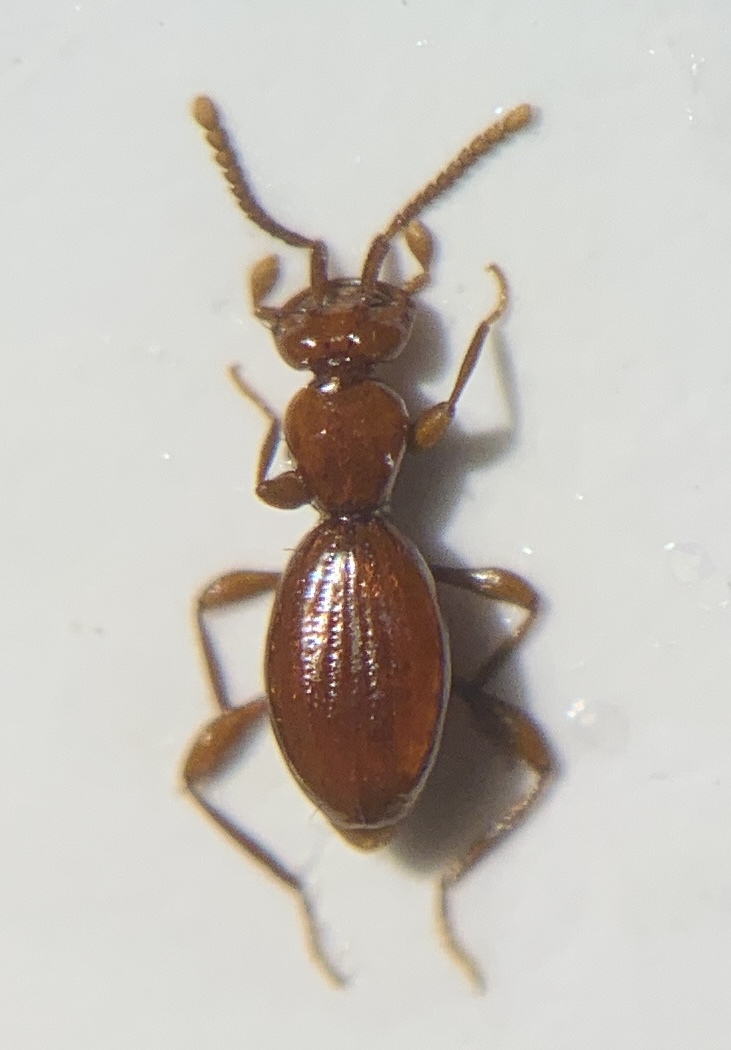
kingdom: Animalia
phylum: Arthropoda
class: Insecta
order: Coleoptera
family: Staphylinidae
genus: Leptomastax
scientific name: Leptomastax hypogea
